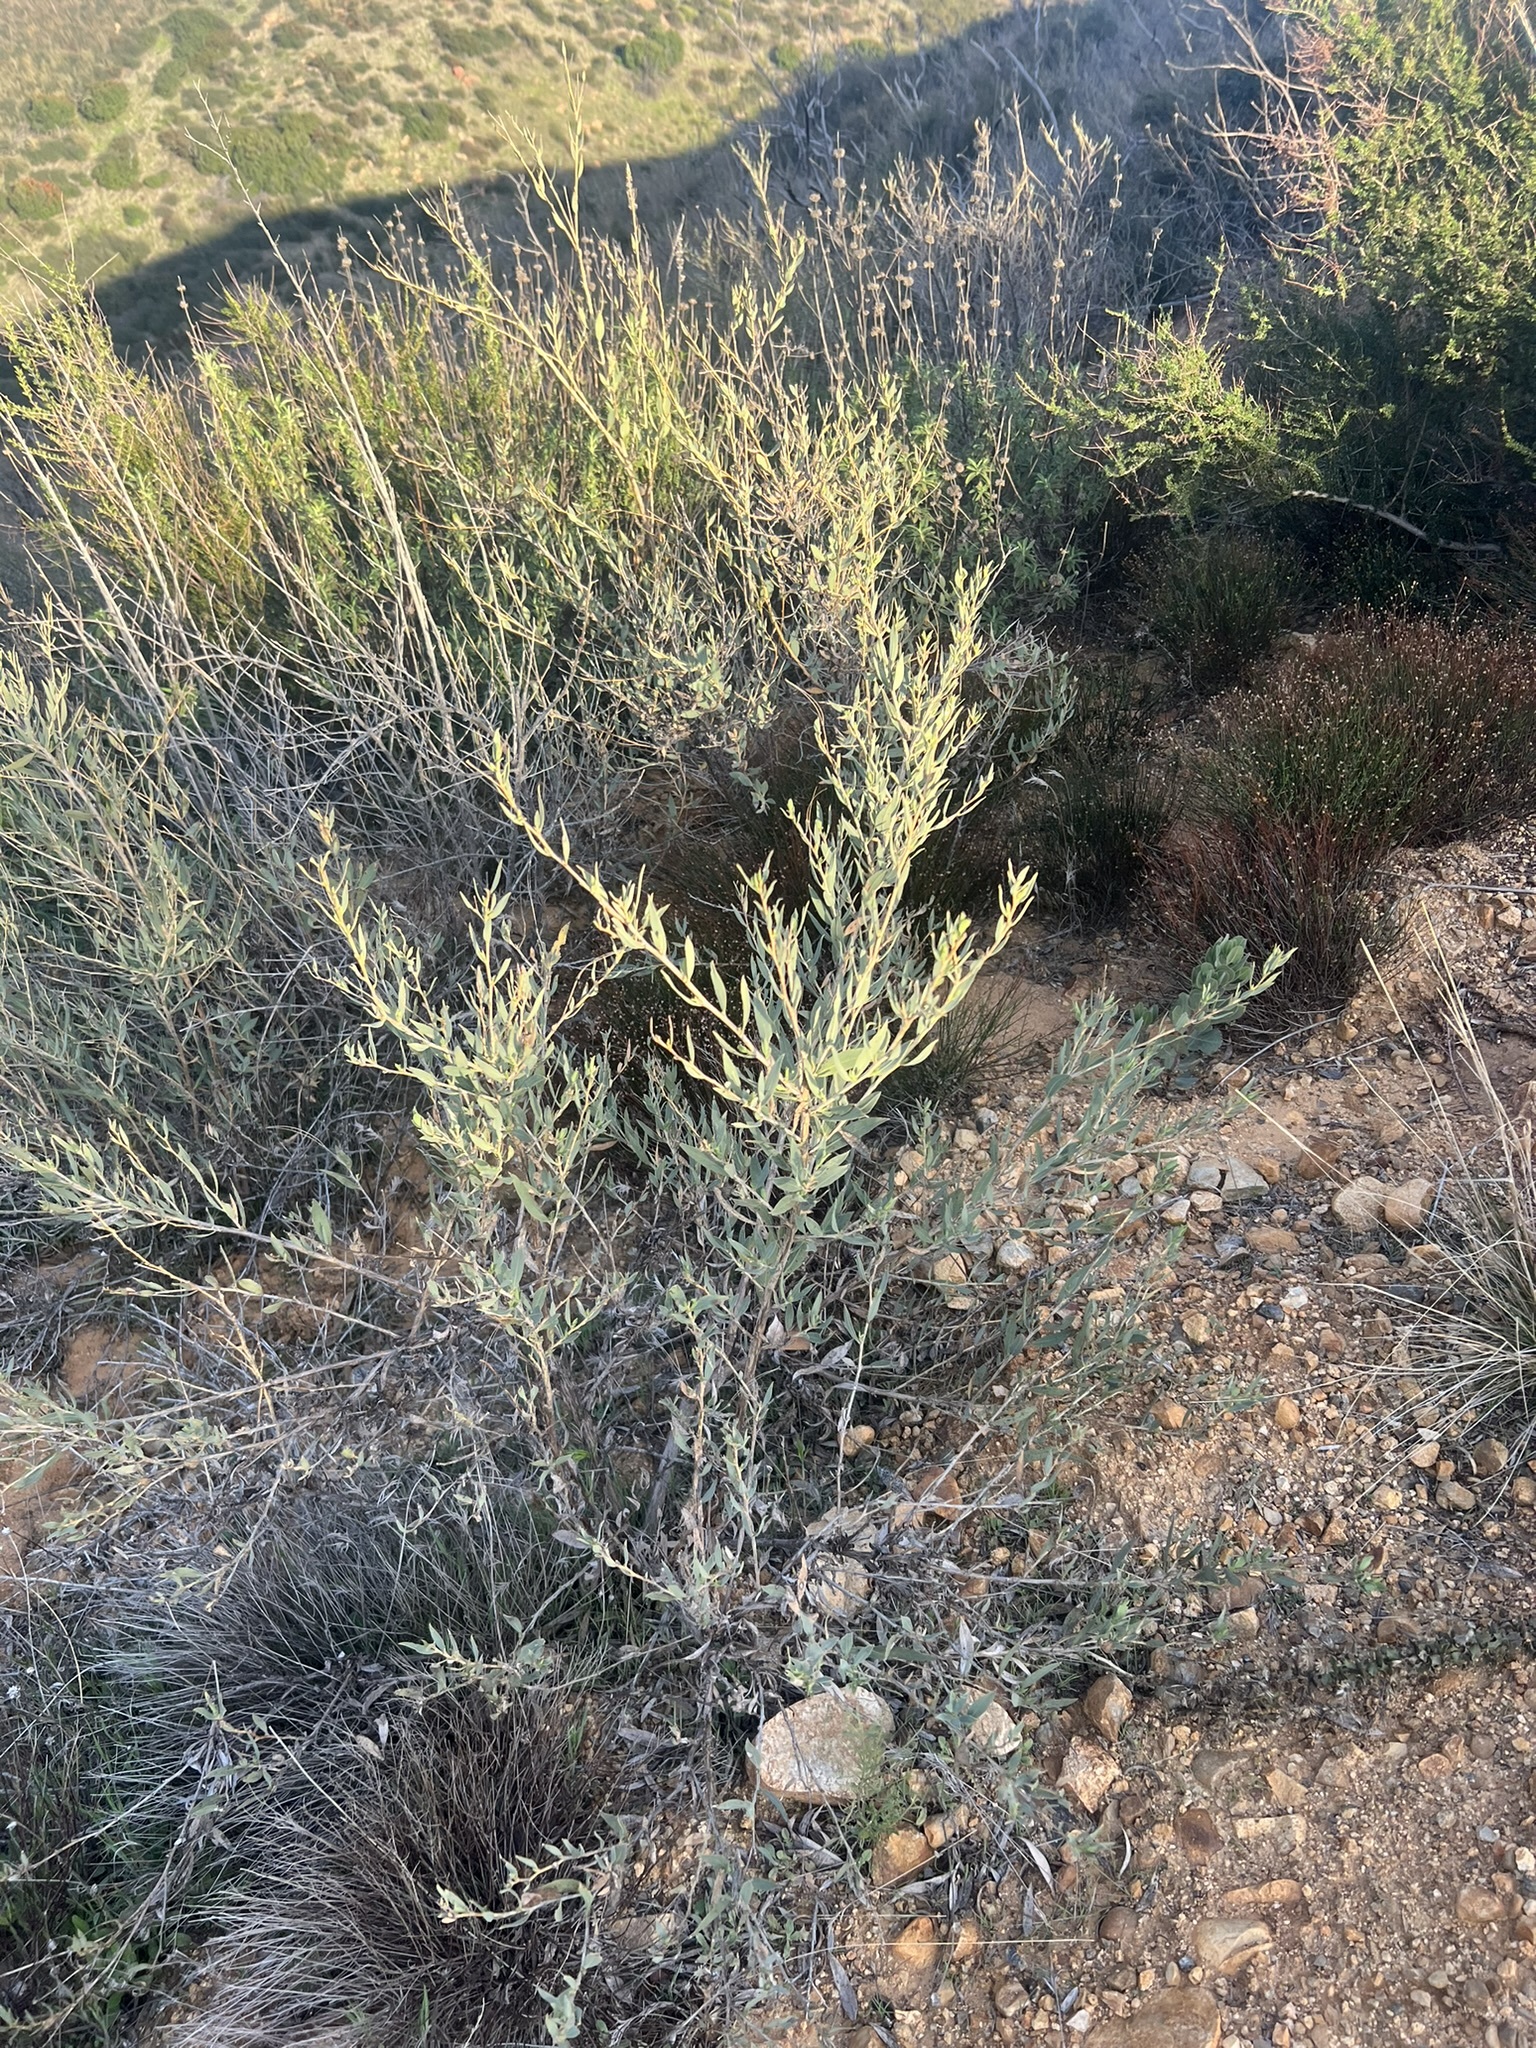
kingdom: Plantae
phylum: Tracheophyta
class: Magnoliopsida
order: Ranunculales
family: Papaveraceae
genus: Dendromecon
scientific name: Dendromecon rigida
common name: Tree poppy
